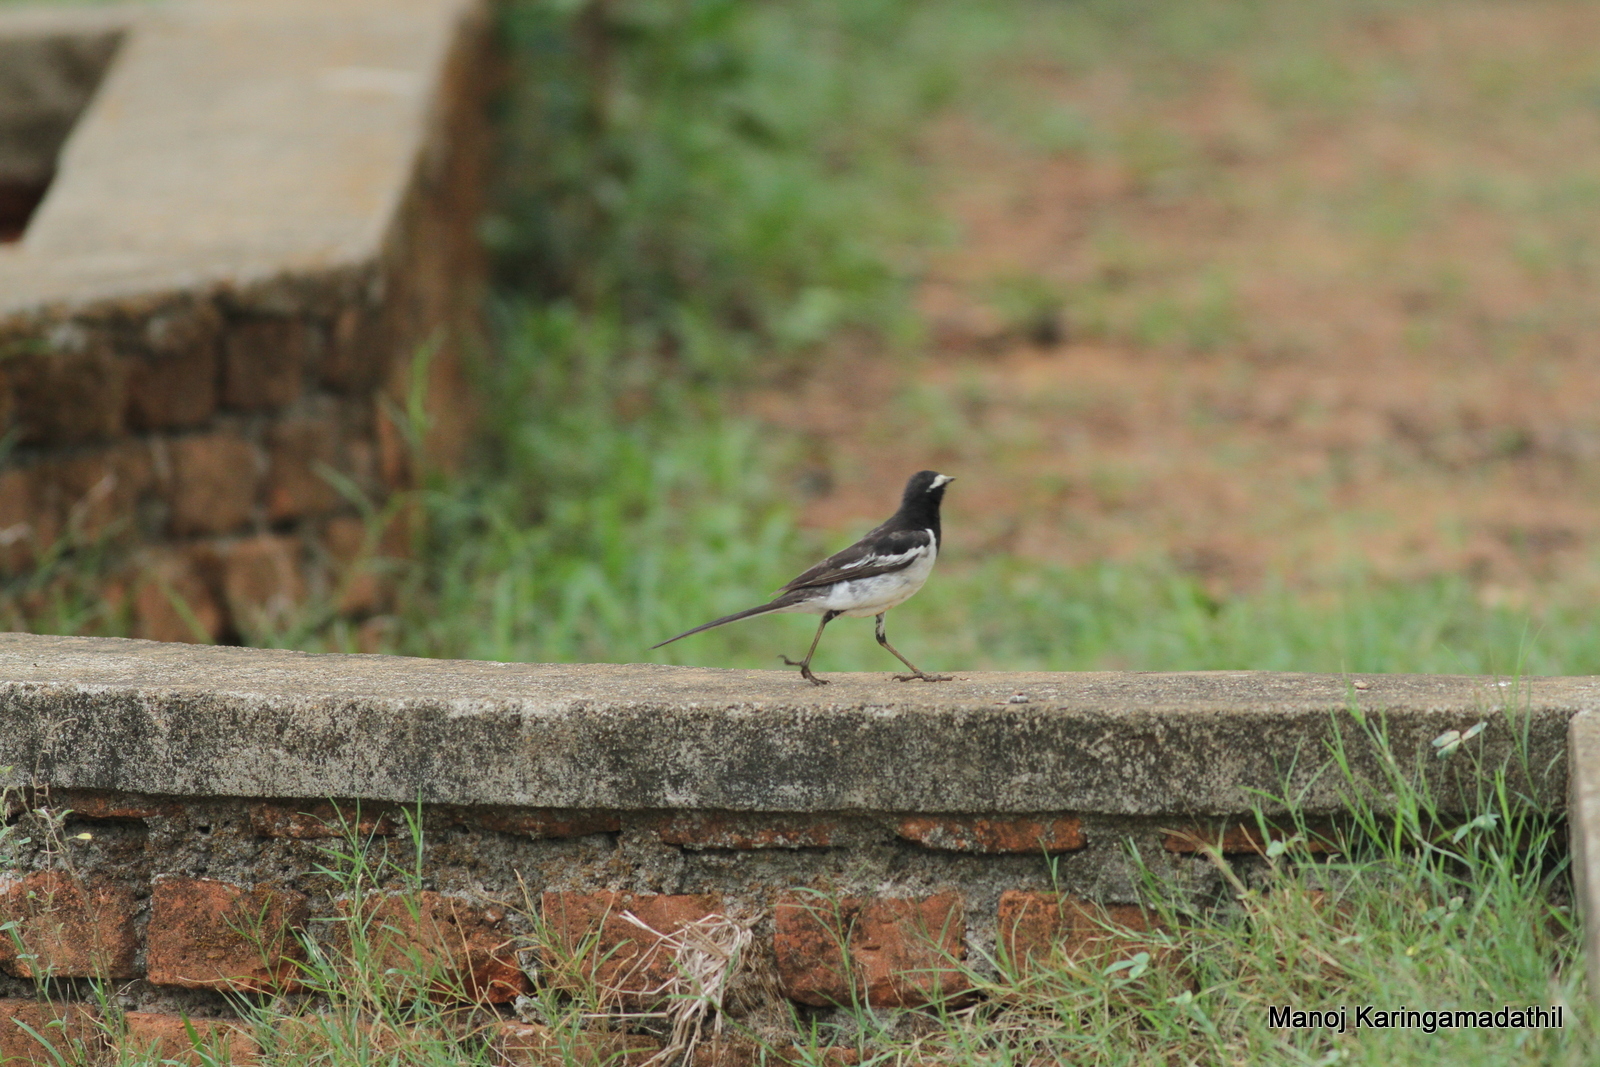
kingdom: Animalia
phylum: Chordata
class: Aves
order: Passeriformes
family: Motacillidae
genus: Motacilla
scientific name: Motacilla maderaspatensis
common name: White-browed wagtail
